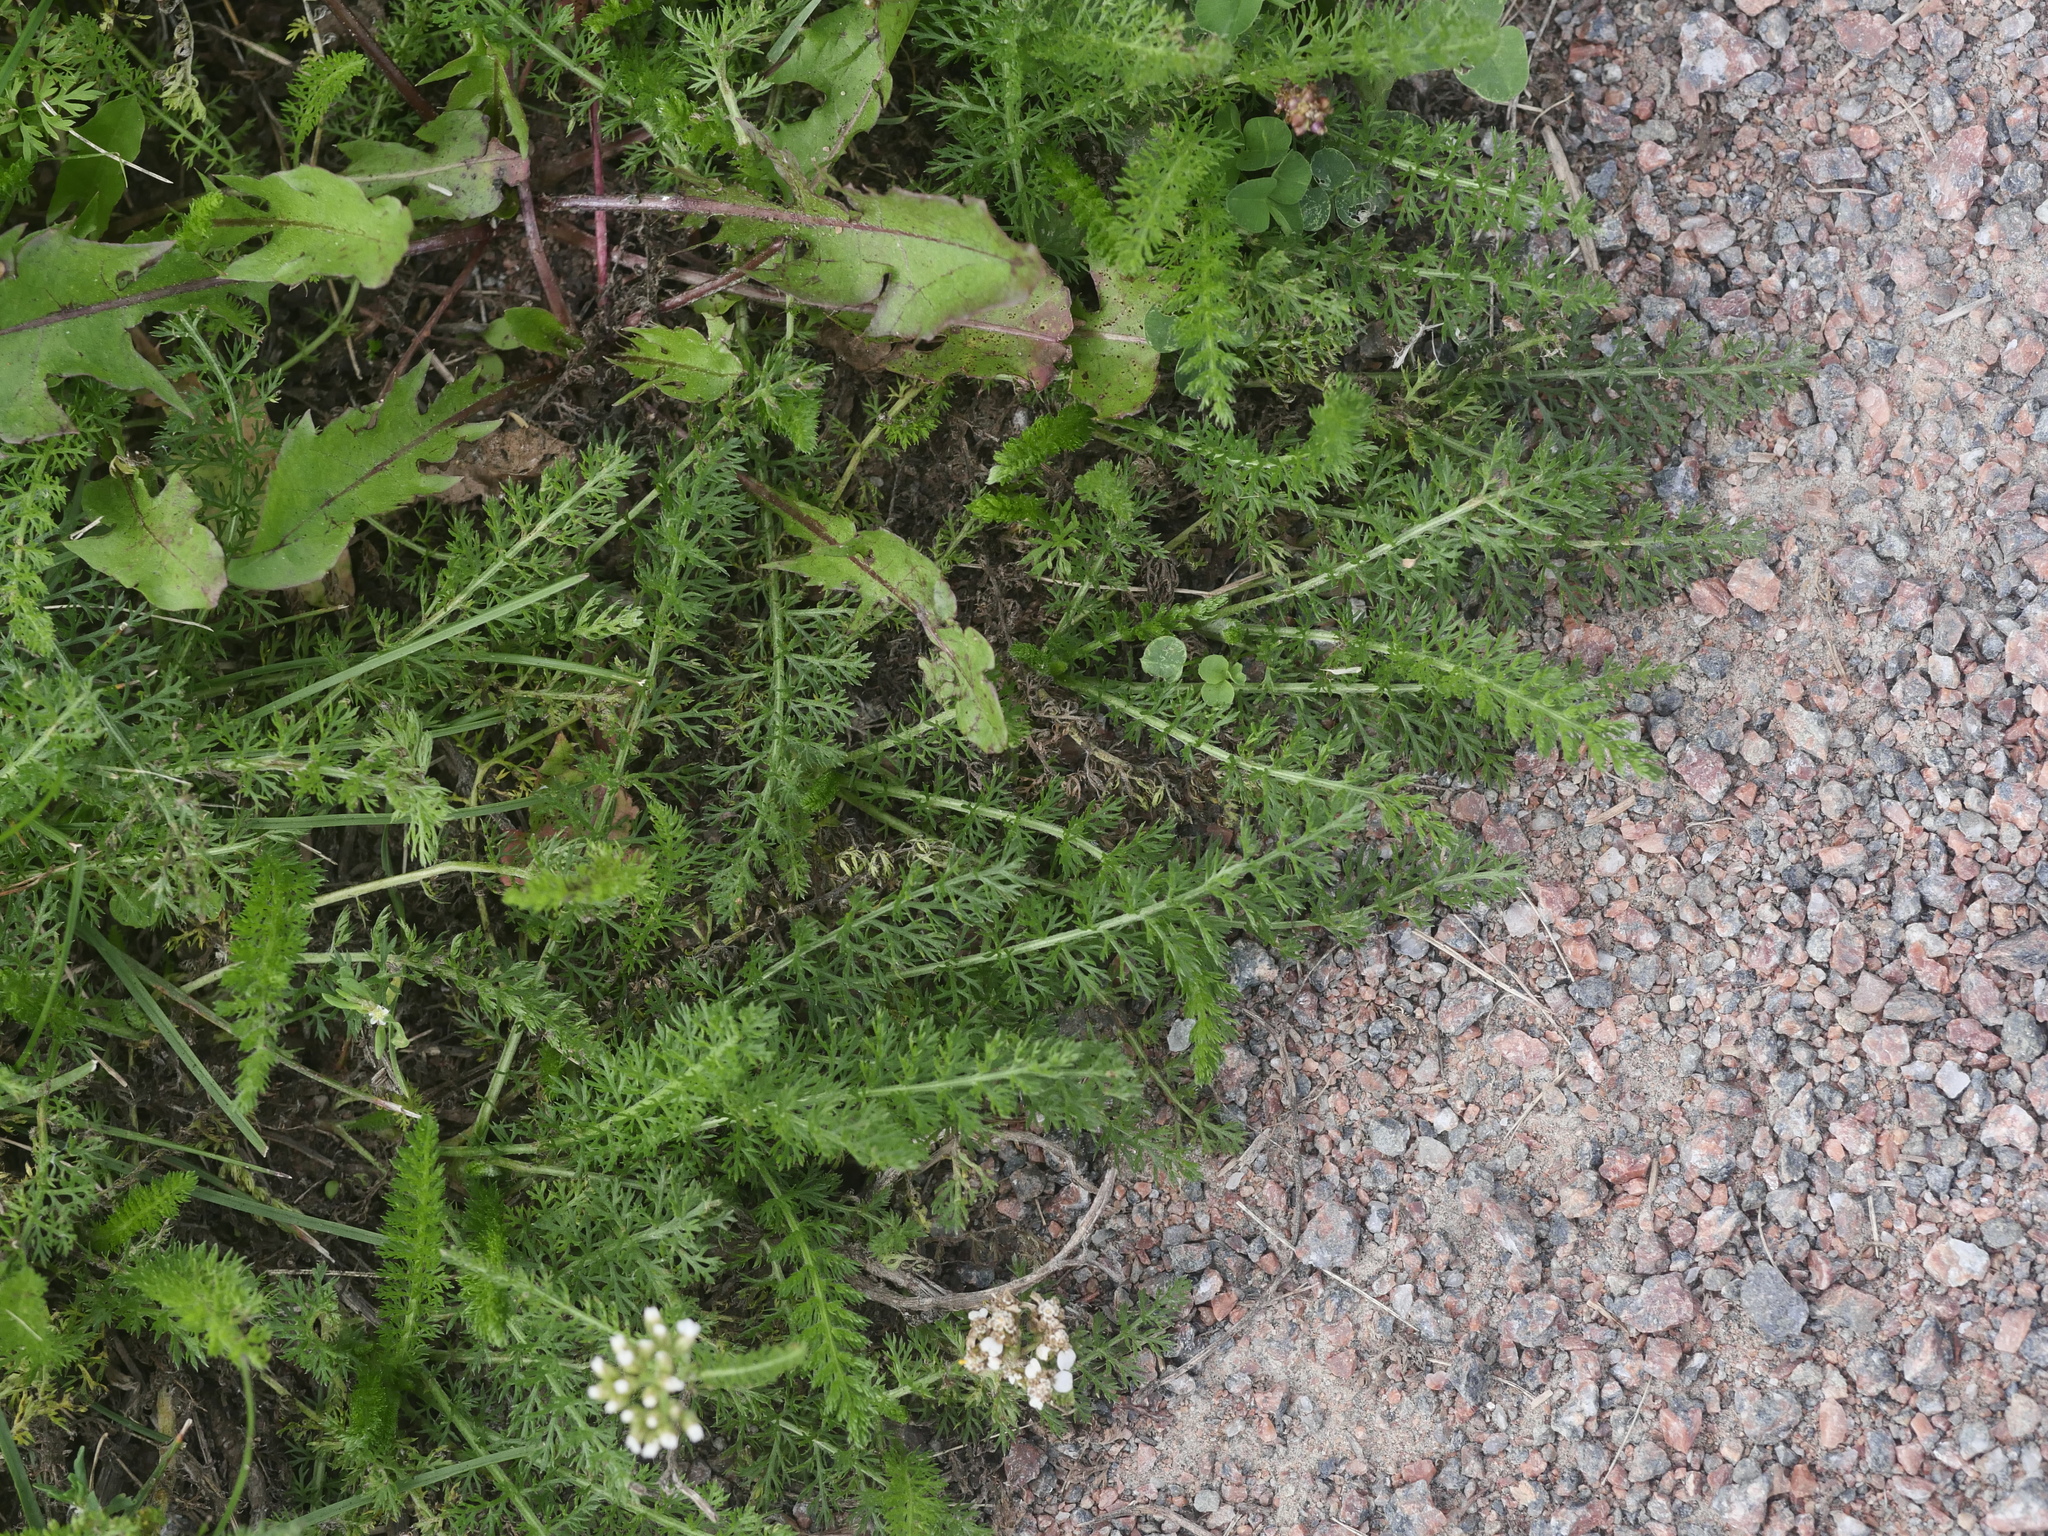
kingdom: Plantae
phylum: Tracheophyta
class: Magnoliopsida
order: Asterales
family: Asteraceae
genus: Achillea
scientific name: Achillea millefolium
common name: Yarrow
